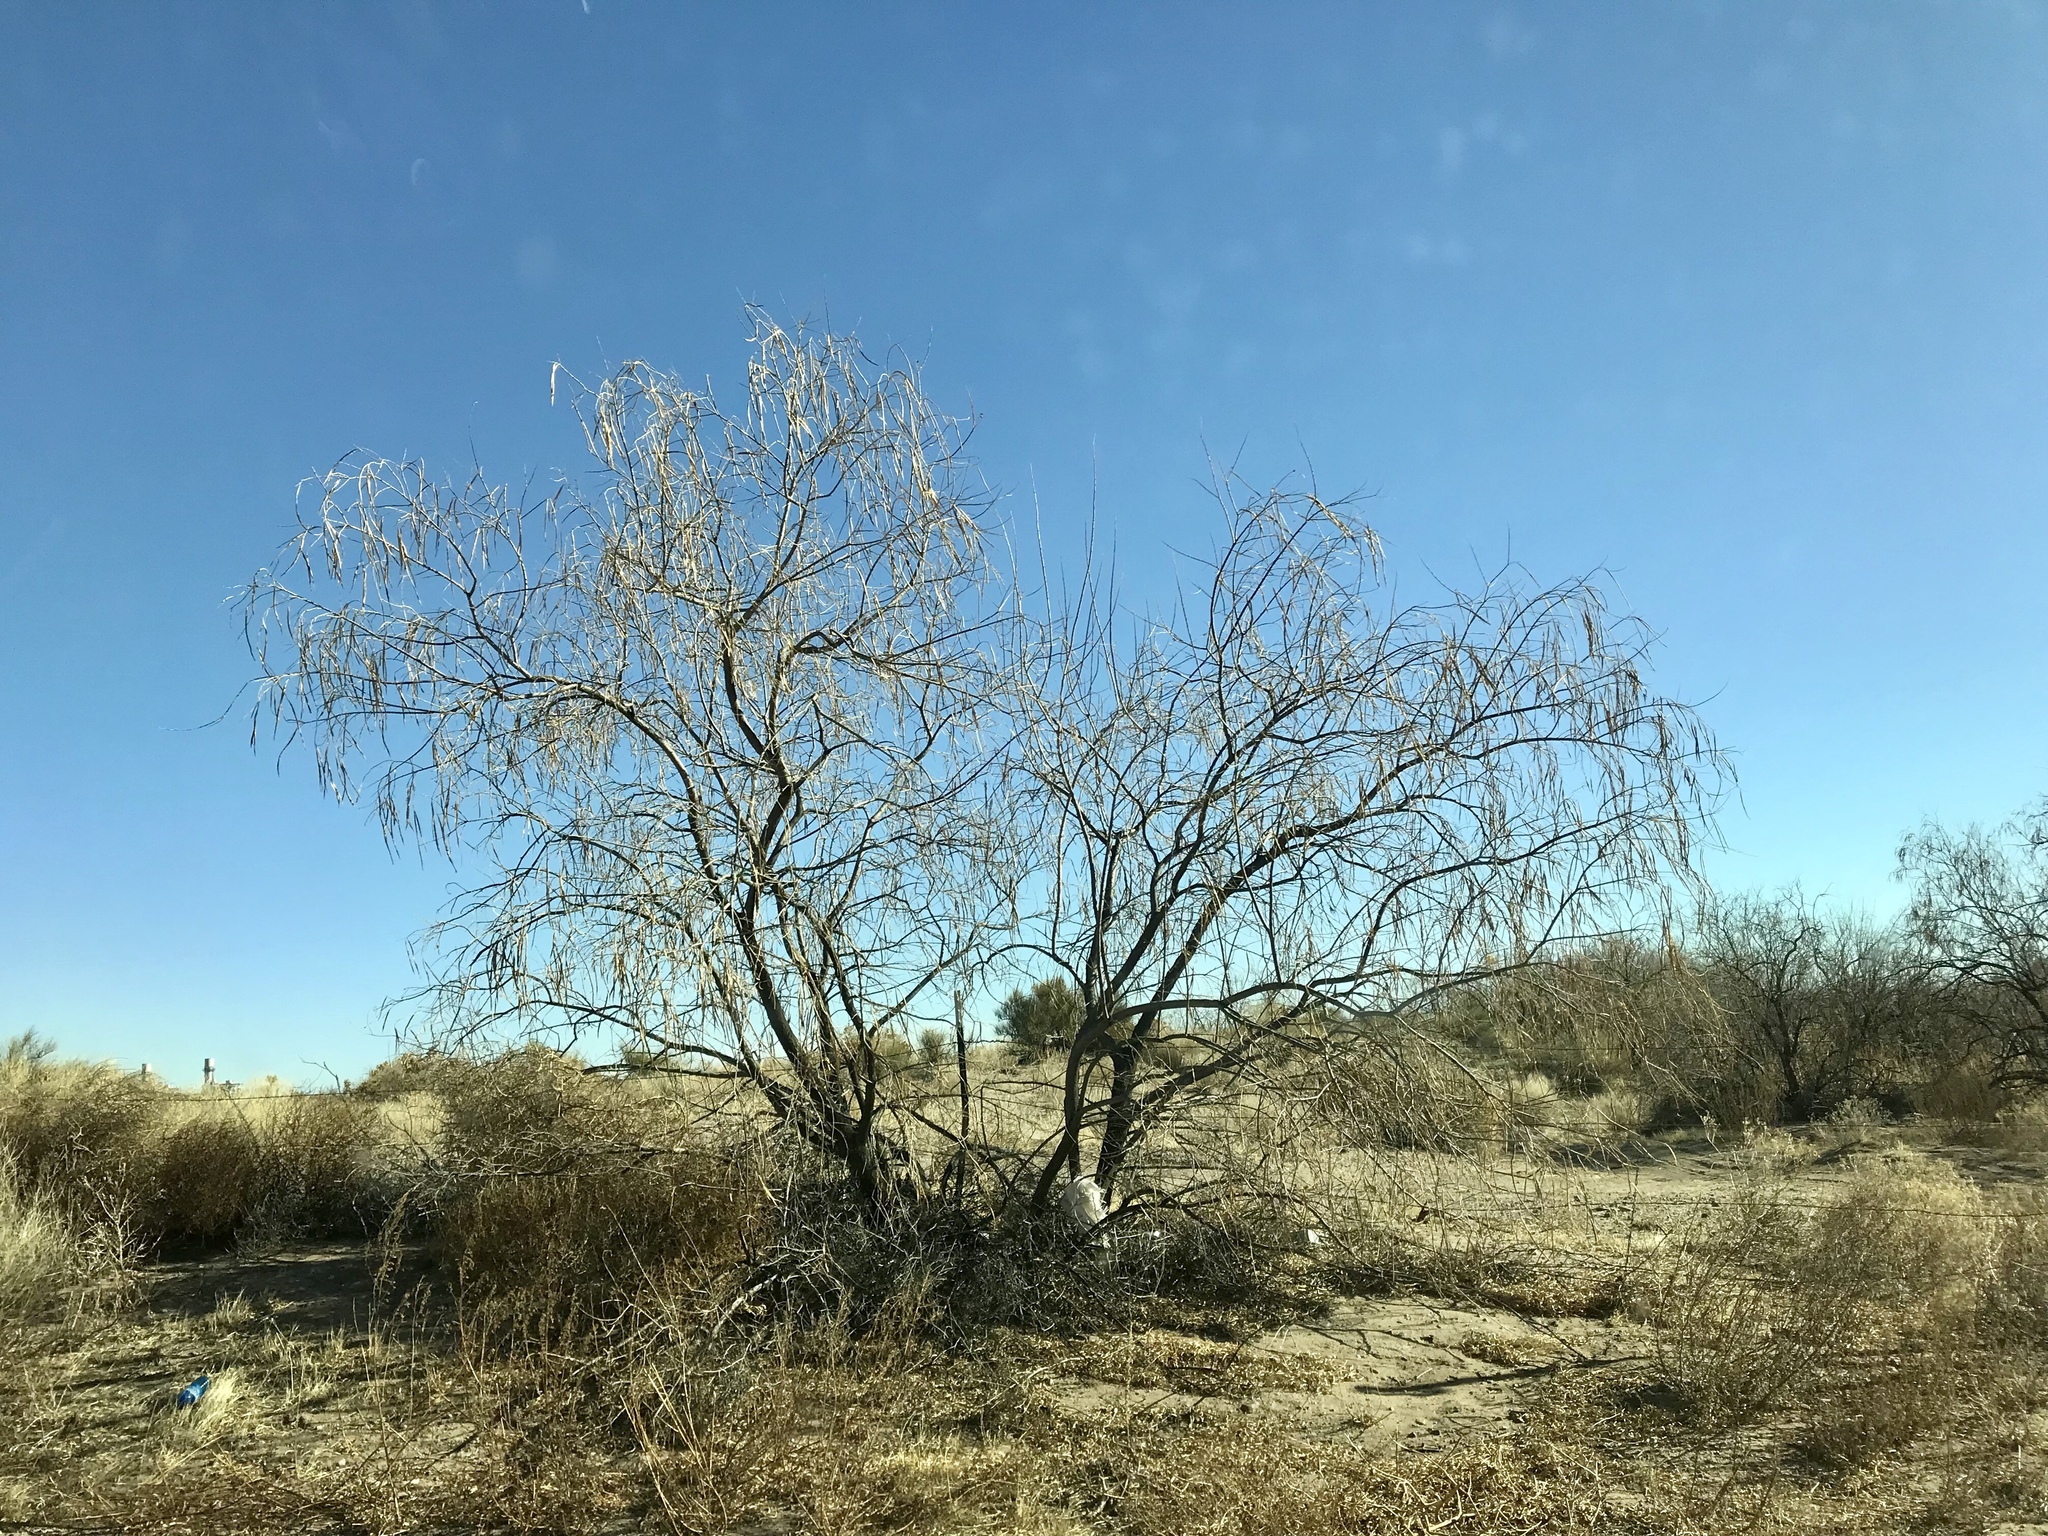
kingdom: Plantae
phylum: Tracheophyta
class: Magnoliopsida
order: Lamiales
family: Bignoniaceae
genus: Chilopsis
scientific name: Chilopsis linearis
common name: Desert-willow
